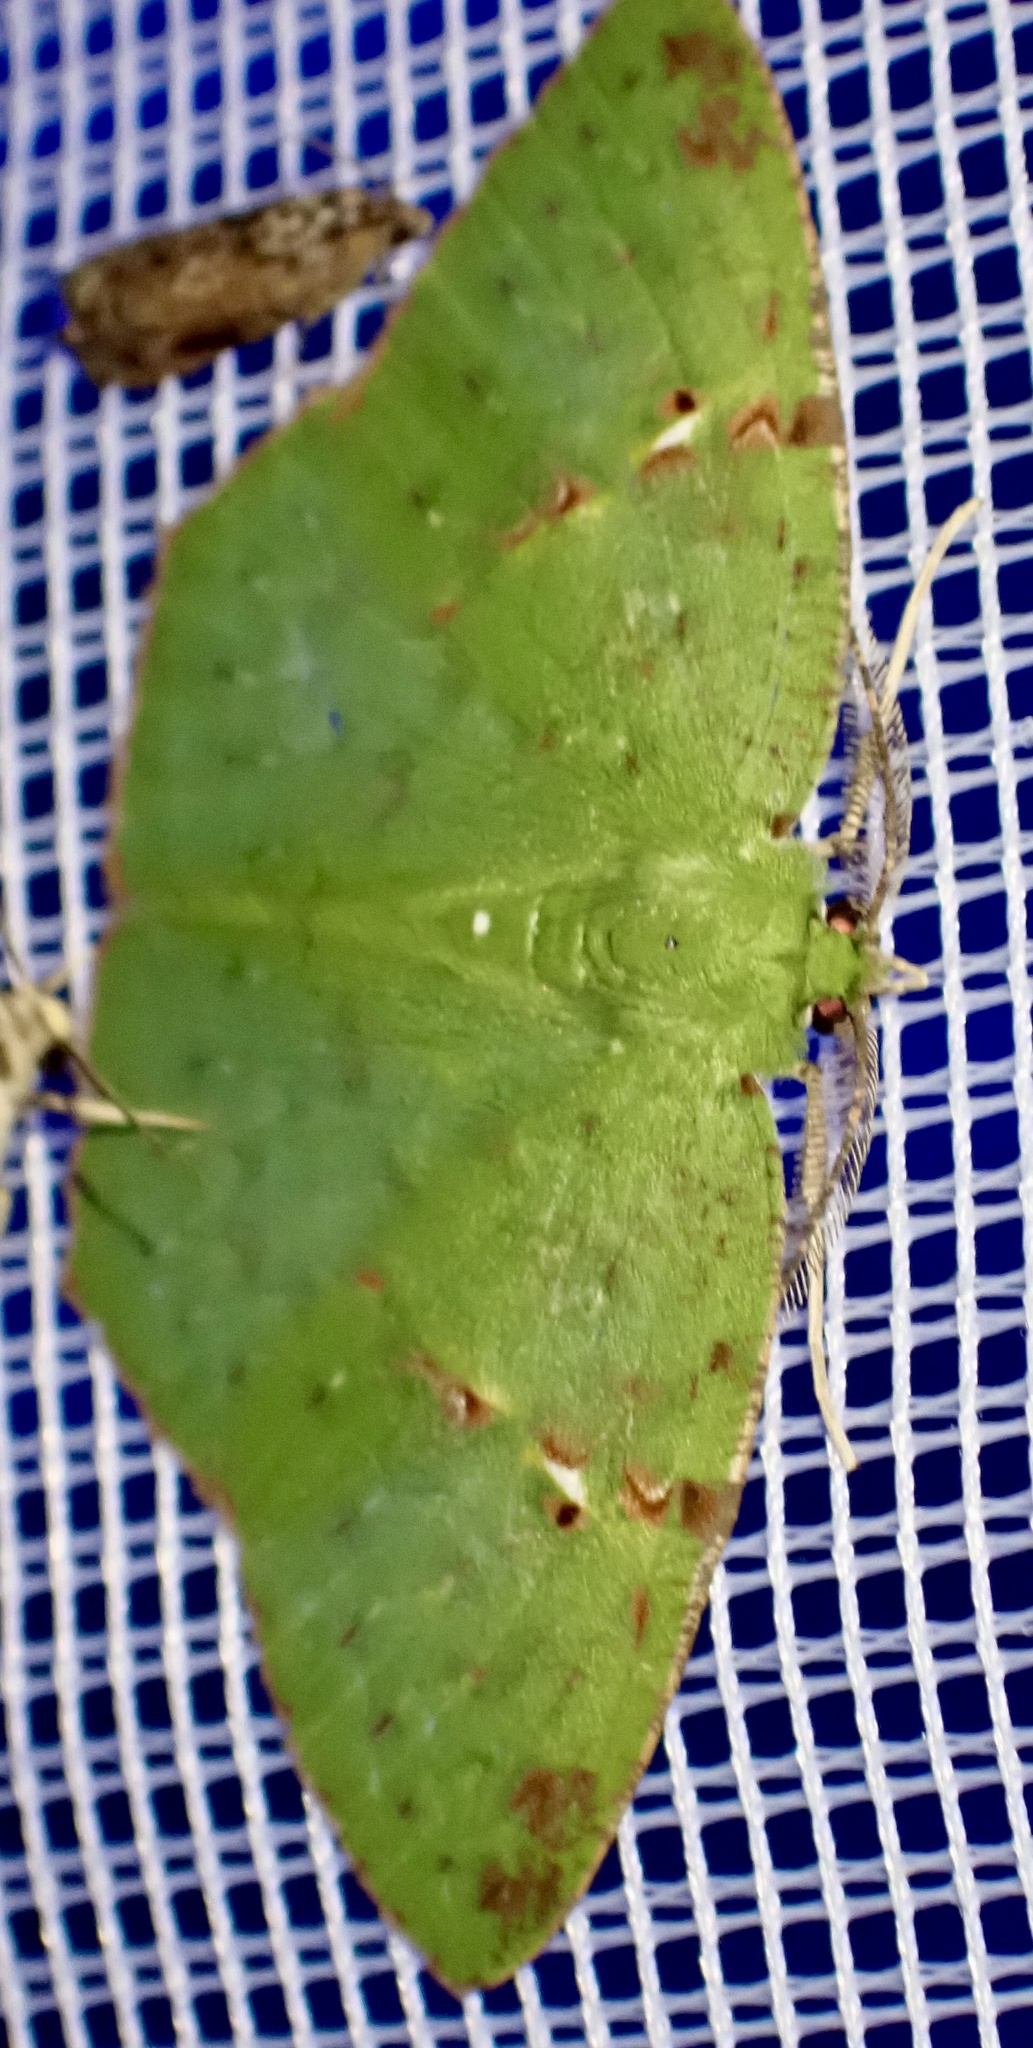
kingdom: Animalia
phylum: Arthropoda
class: Insecta
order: Lepidoptera
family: Geometridae
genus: Strepsichlora
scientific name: Strepsichlora remissa
